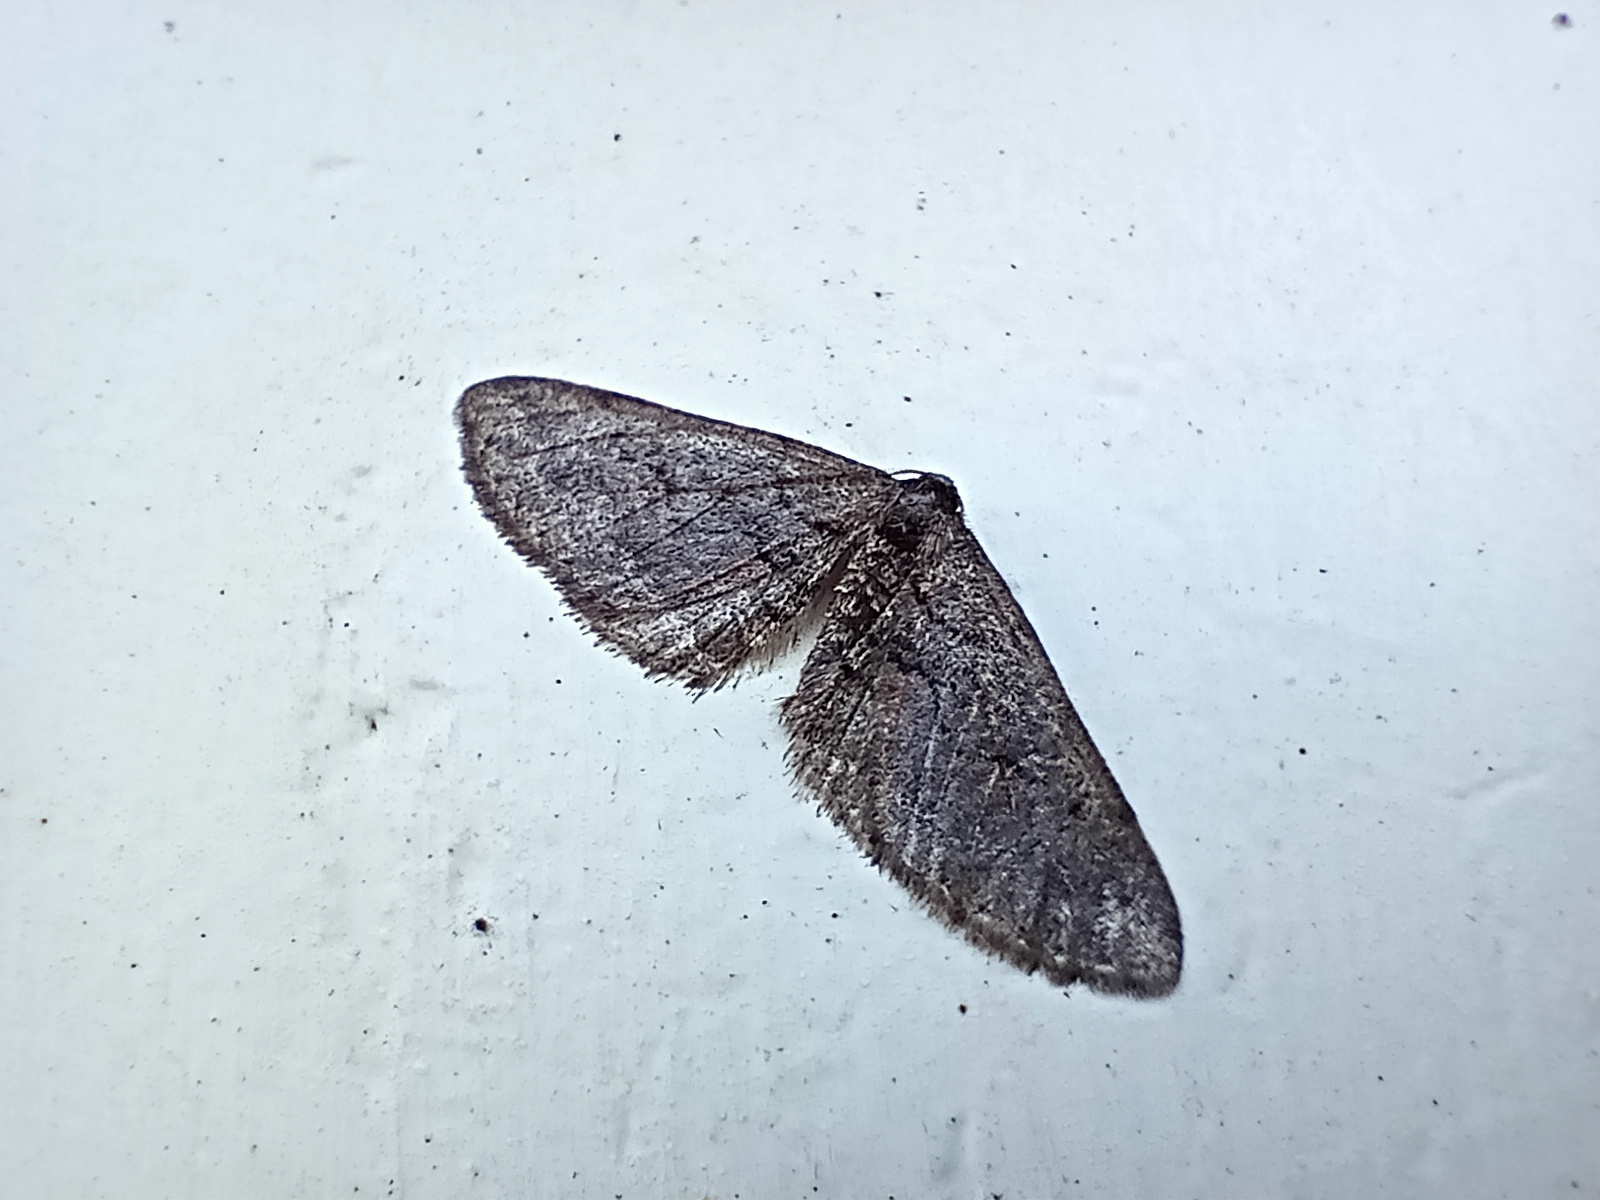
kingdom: Animalia
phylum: Arthropoda
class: Insecta
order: Lepidoptera
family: Geometridae
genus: Agriopis
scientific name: Agriopis bajaria
